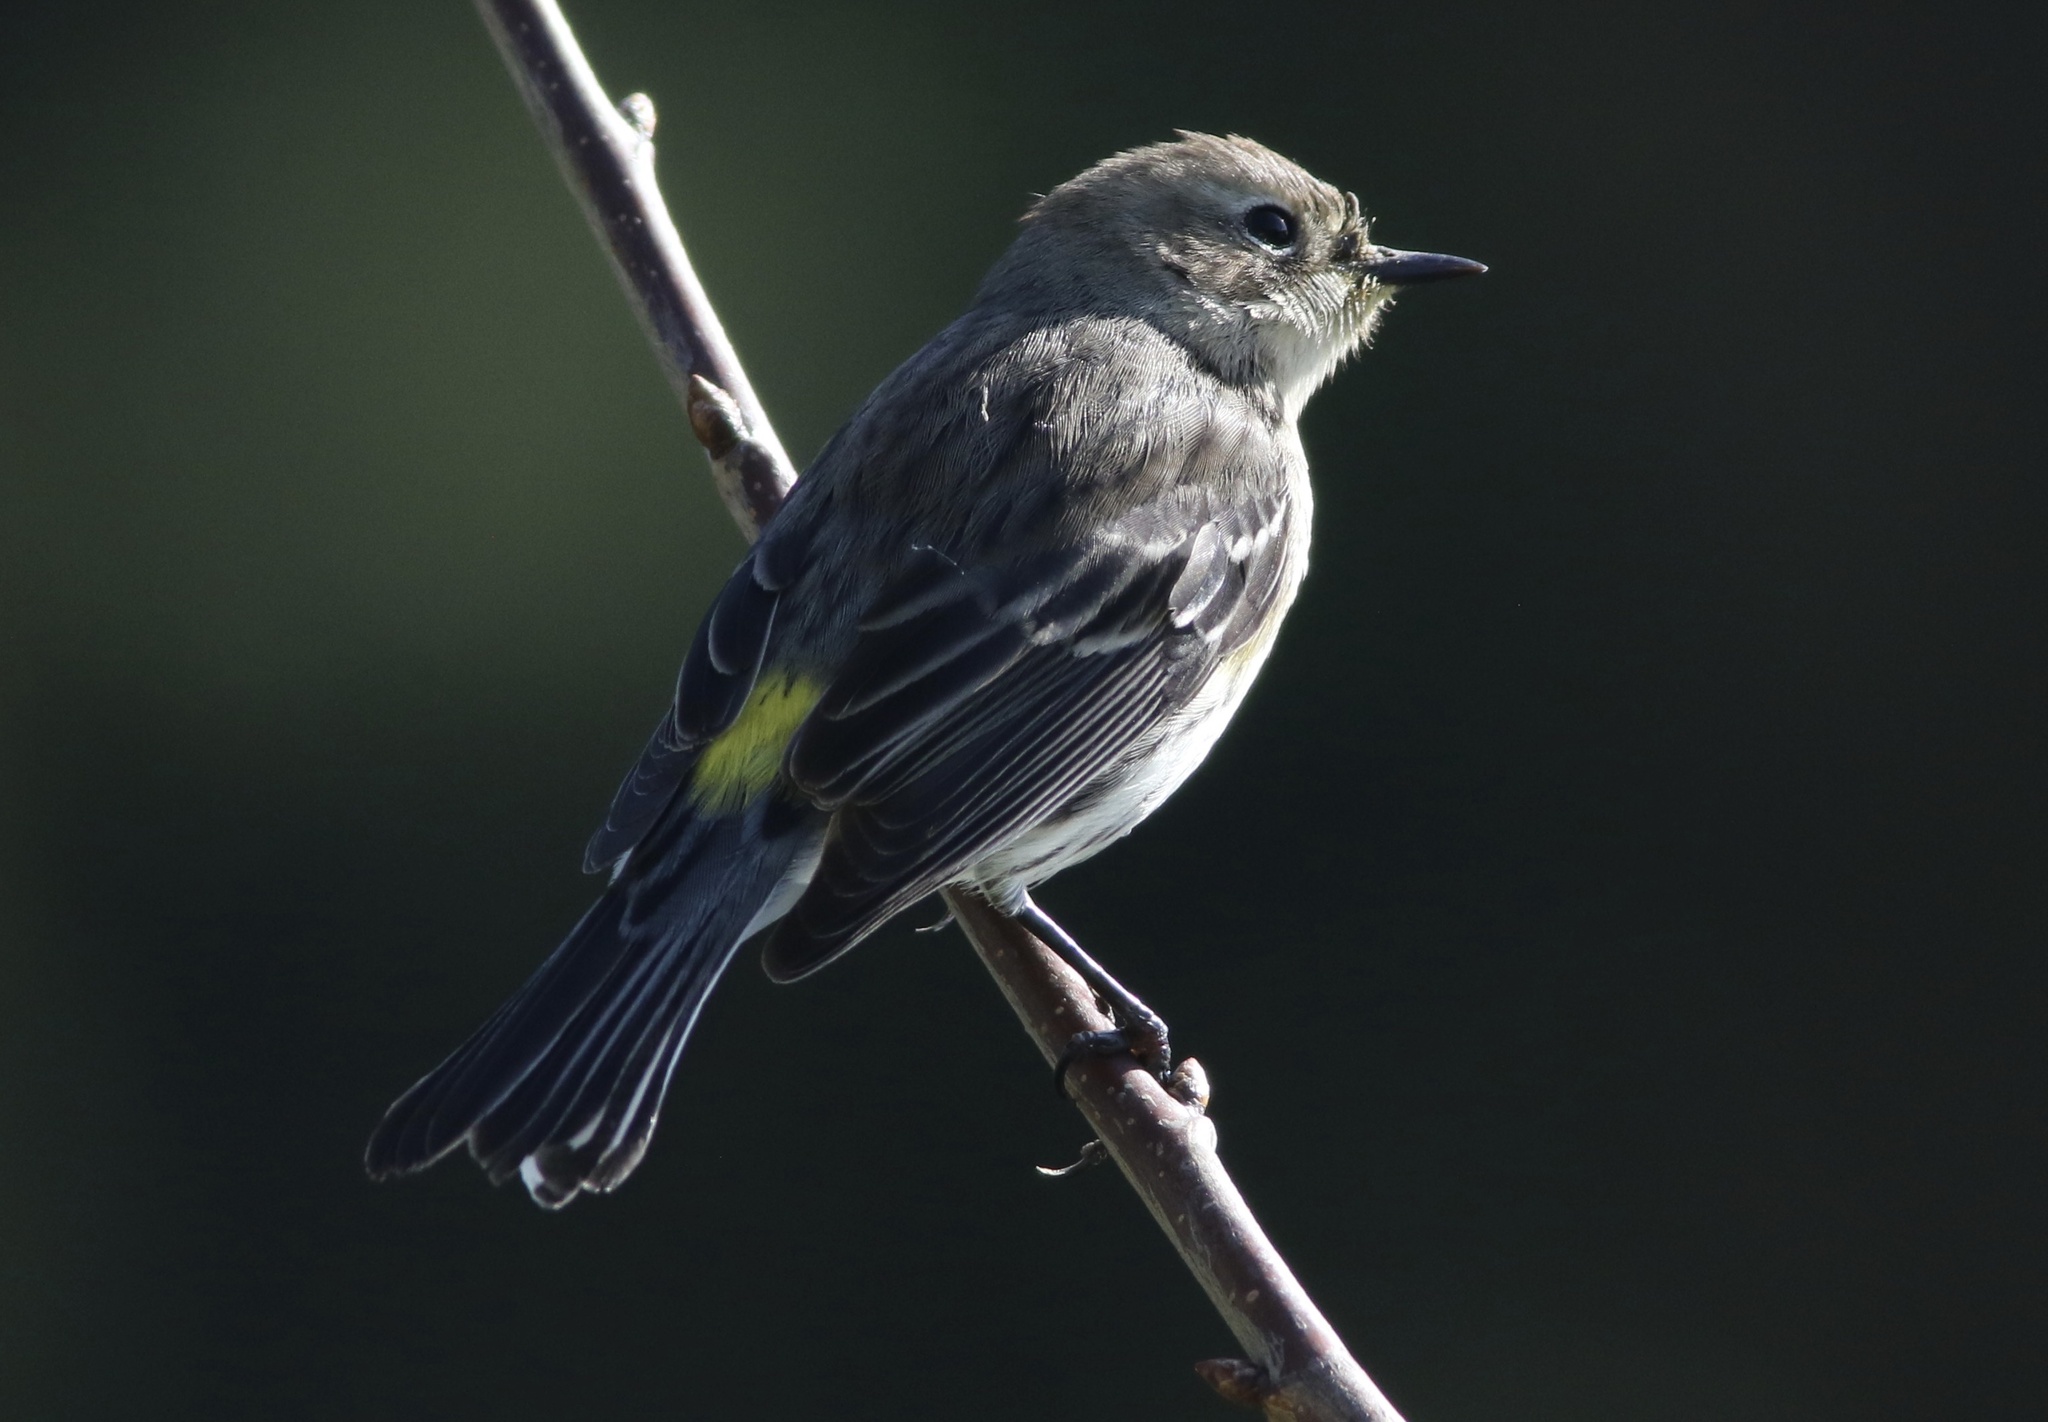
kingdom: Animalia
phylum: Chordata
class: Aves
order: Passeriformes
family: Parulidae
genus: Setophaga
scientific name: Setophaga coronata
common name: Myrtle warbler
